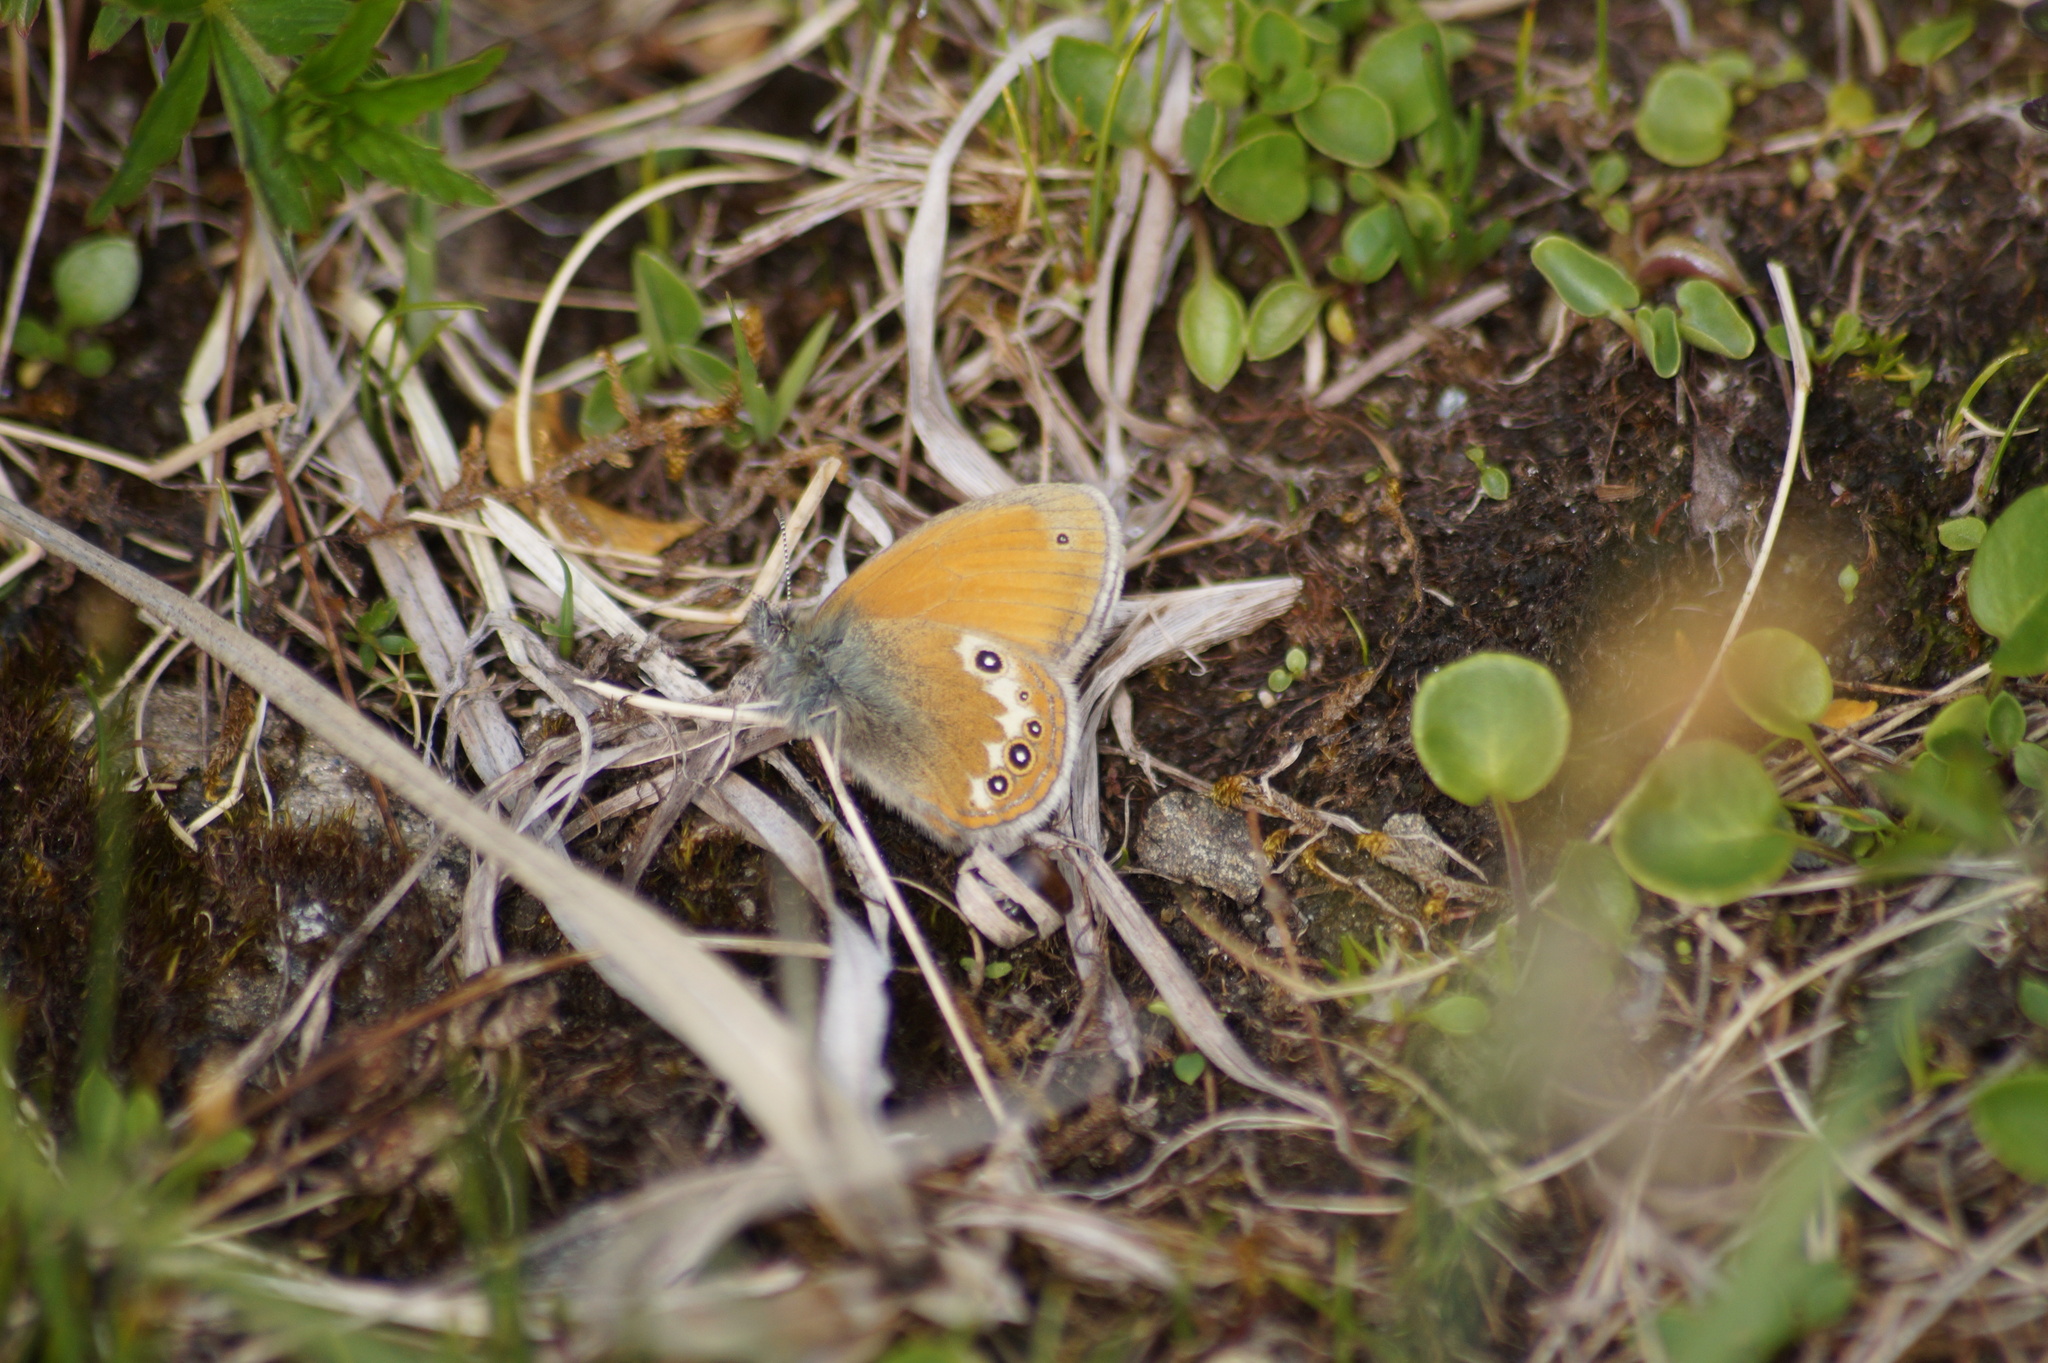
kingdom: Animalia
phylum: Arthropoda
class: Insecta
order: Lepidoptera
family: Nymphalidae
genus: Coenonympha
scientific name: Coenonympha
